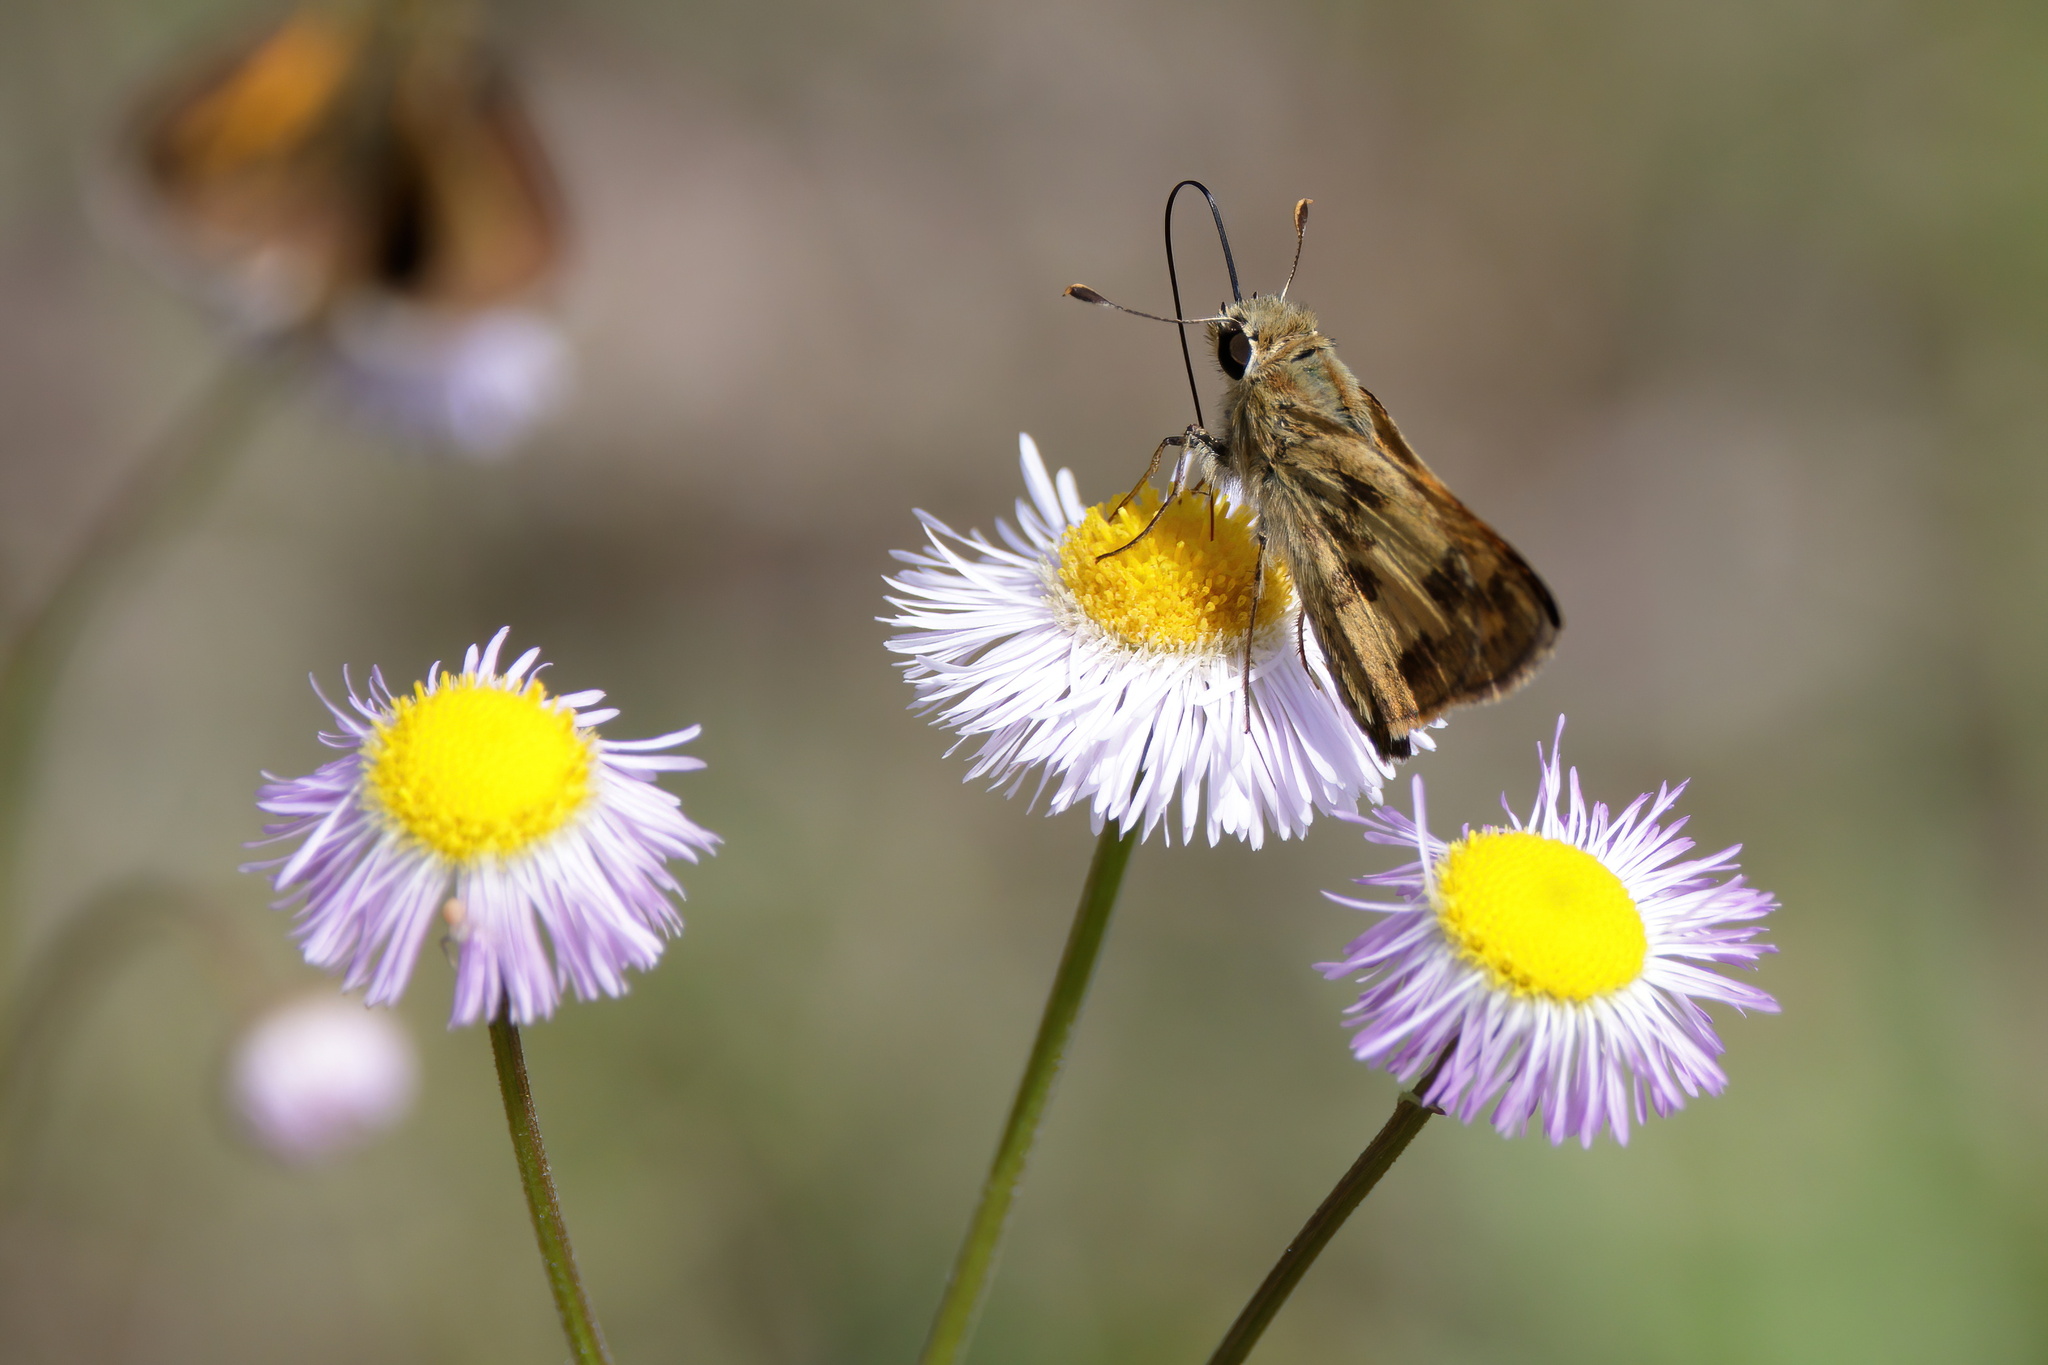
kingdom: Animalia
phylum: Arthropoda
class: Insecta
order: Lepidoptera
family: Hesperiidae
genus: Polites
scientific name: Polites vibex
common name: Whirlabout
